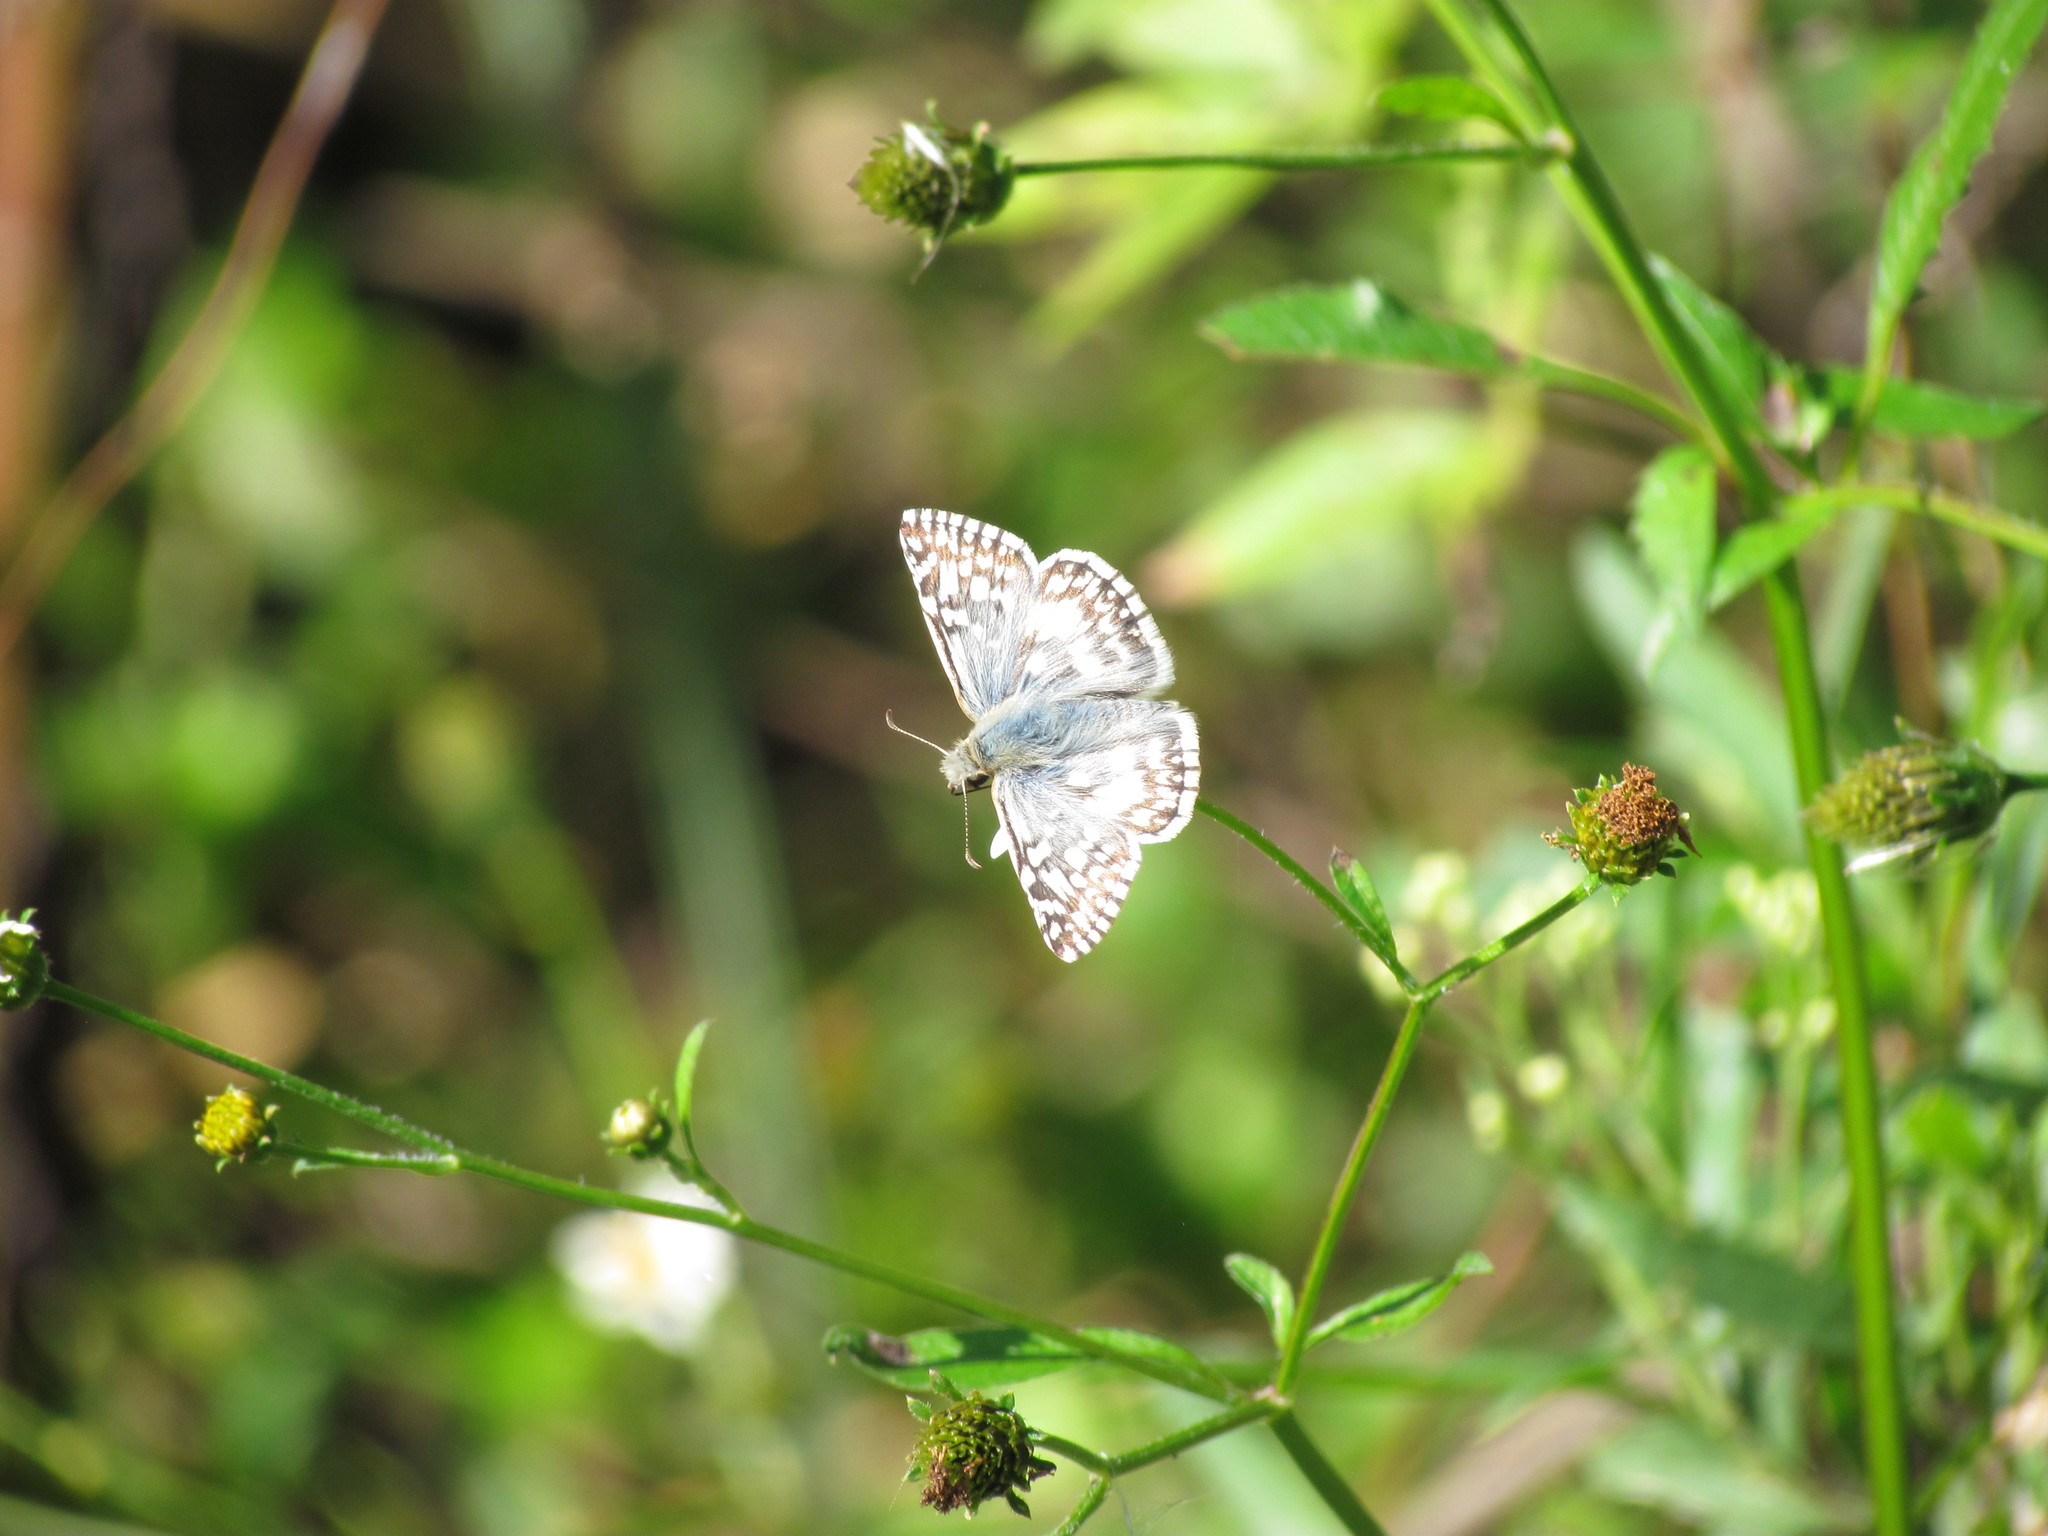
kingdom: Animalia
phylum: Arthropoda
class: Insecta
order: Lepidoptera
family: Hesperiidae
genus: Heliopetes
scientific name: Heliopetes americanus
